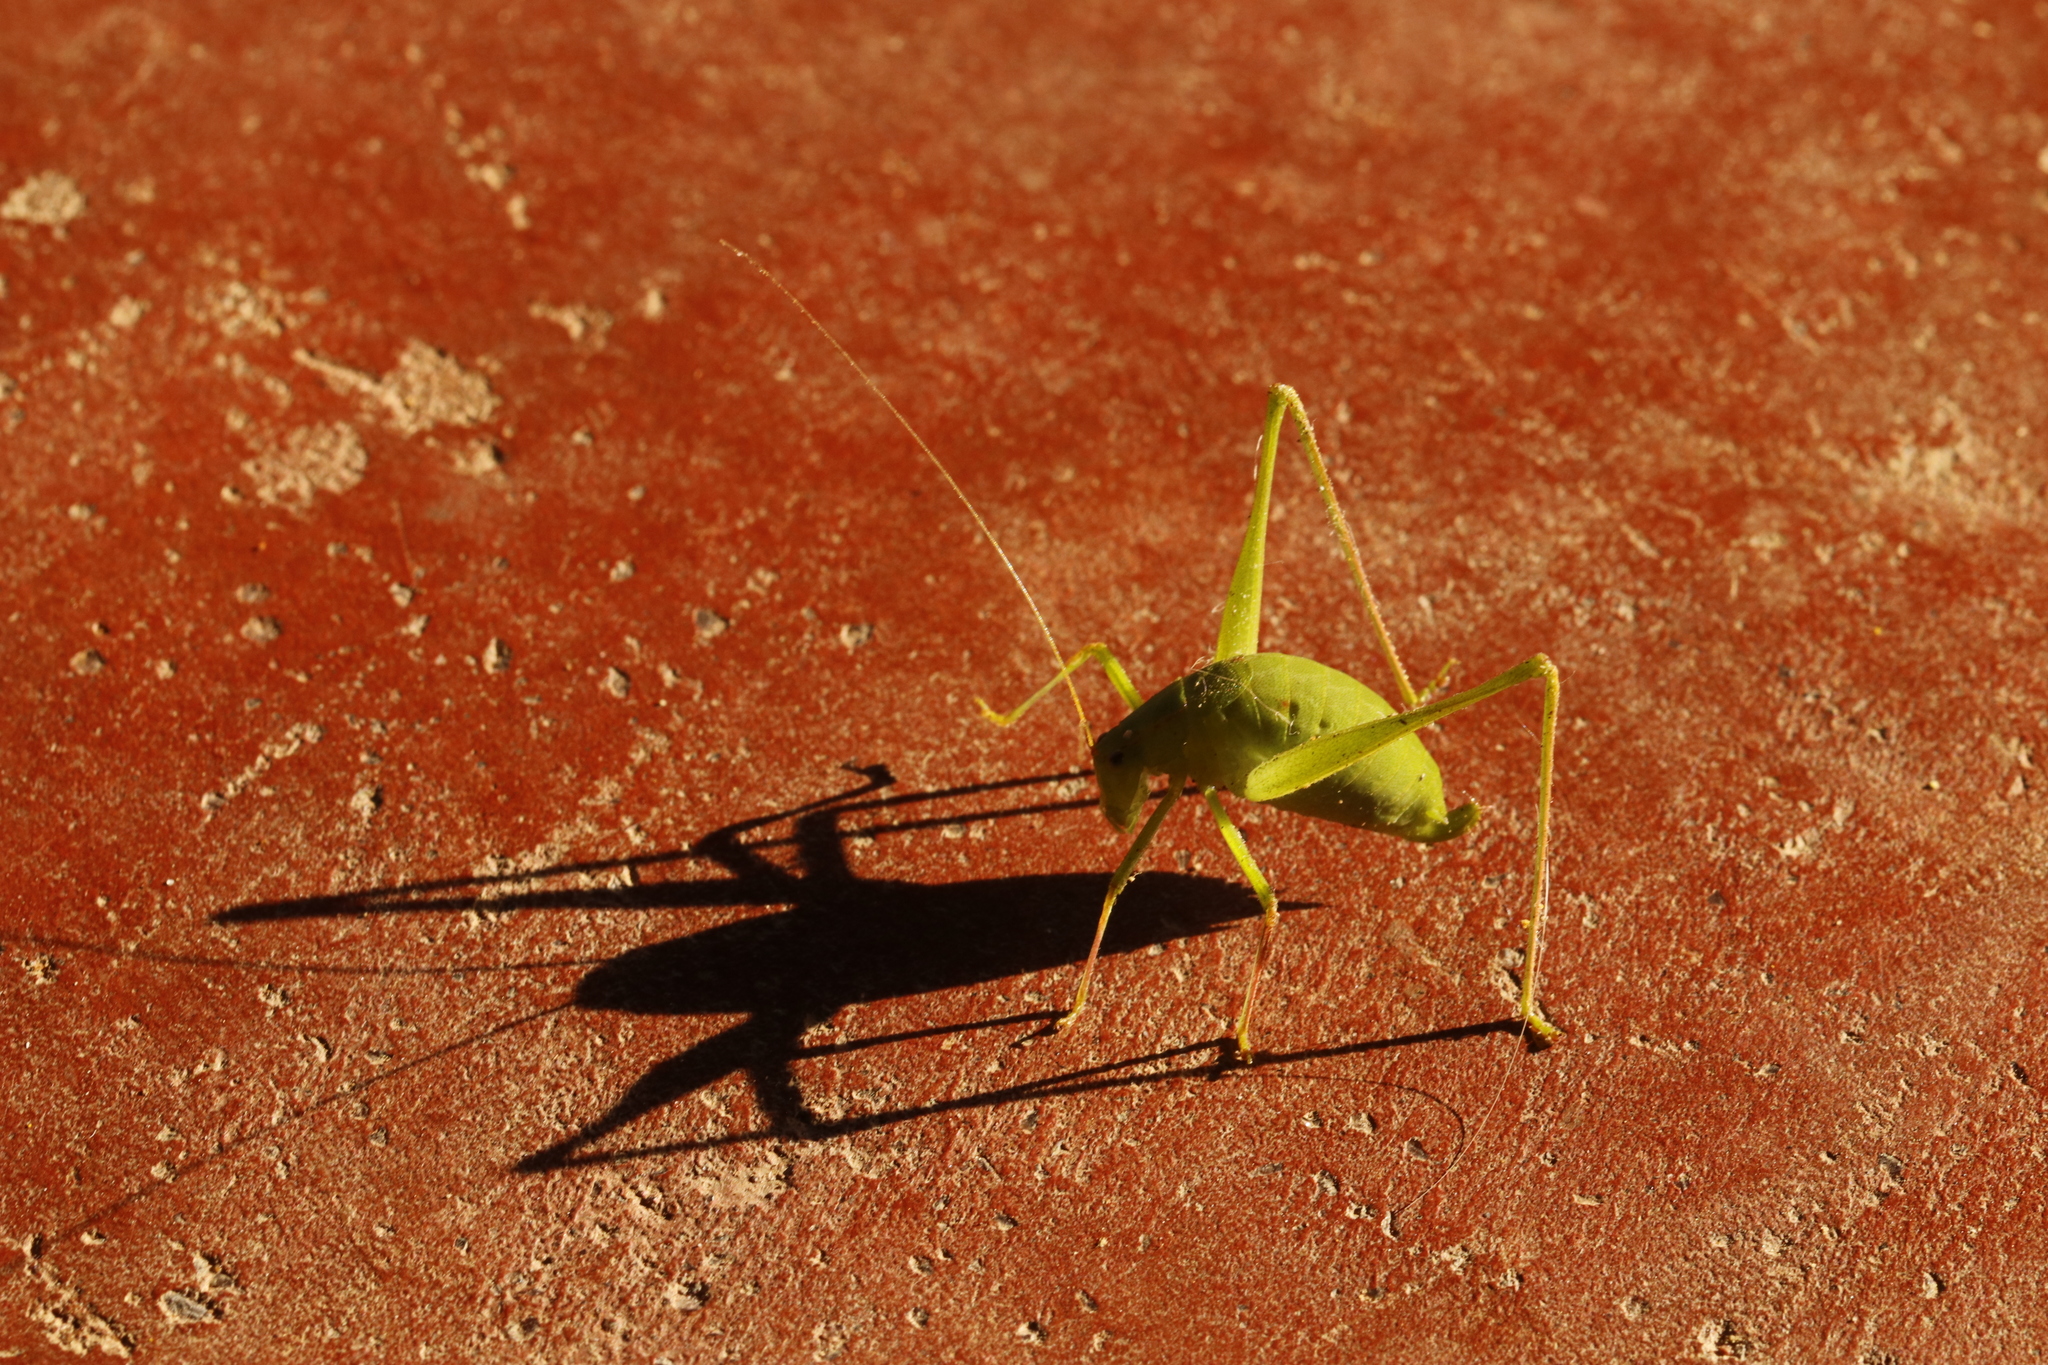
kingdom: Animalia
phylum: Arthropoda
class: Insecta
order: Orthoptera
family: Tettigoniidae
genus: Austrodontura
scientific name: Austrodontura capensis
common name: Cape flightless katydid
